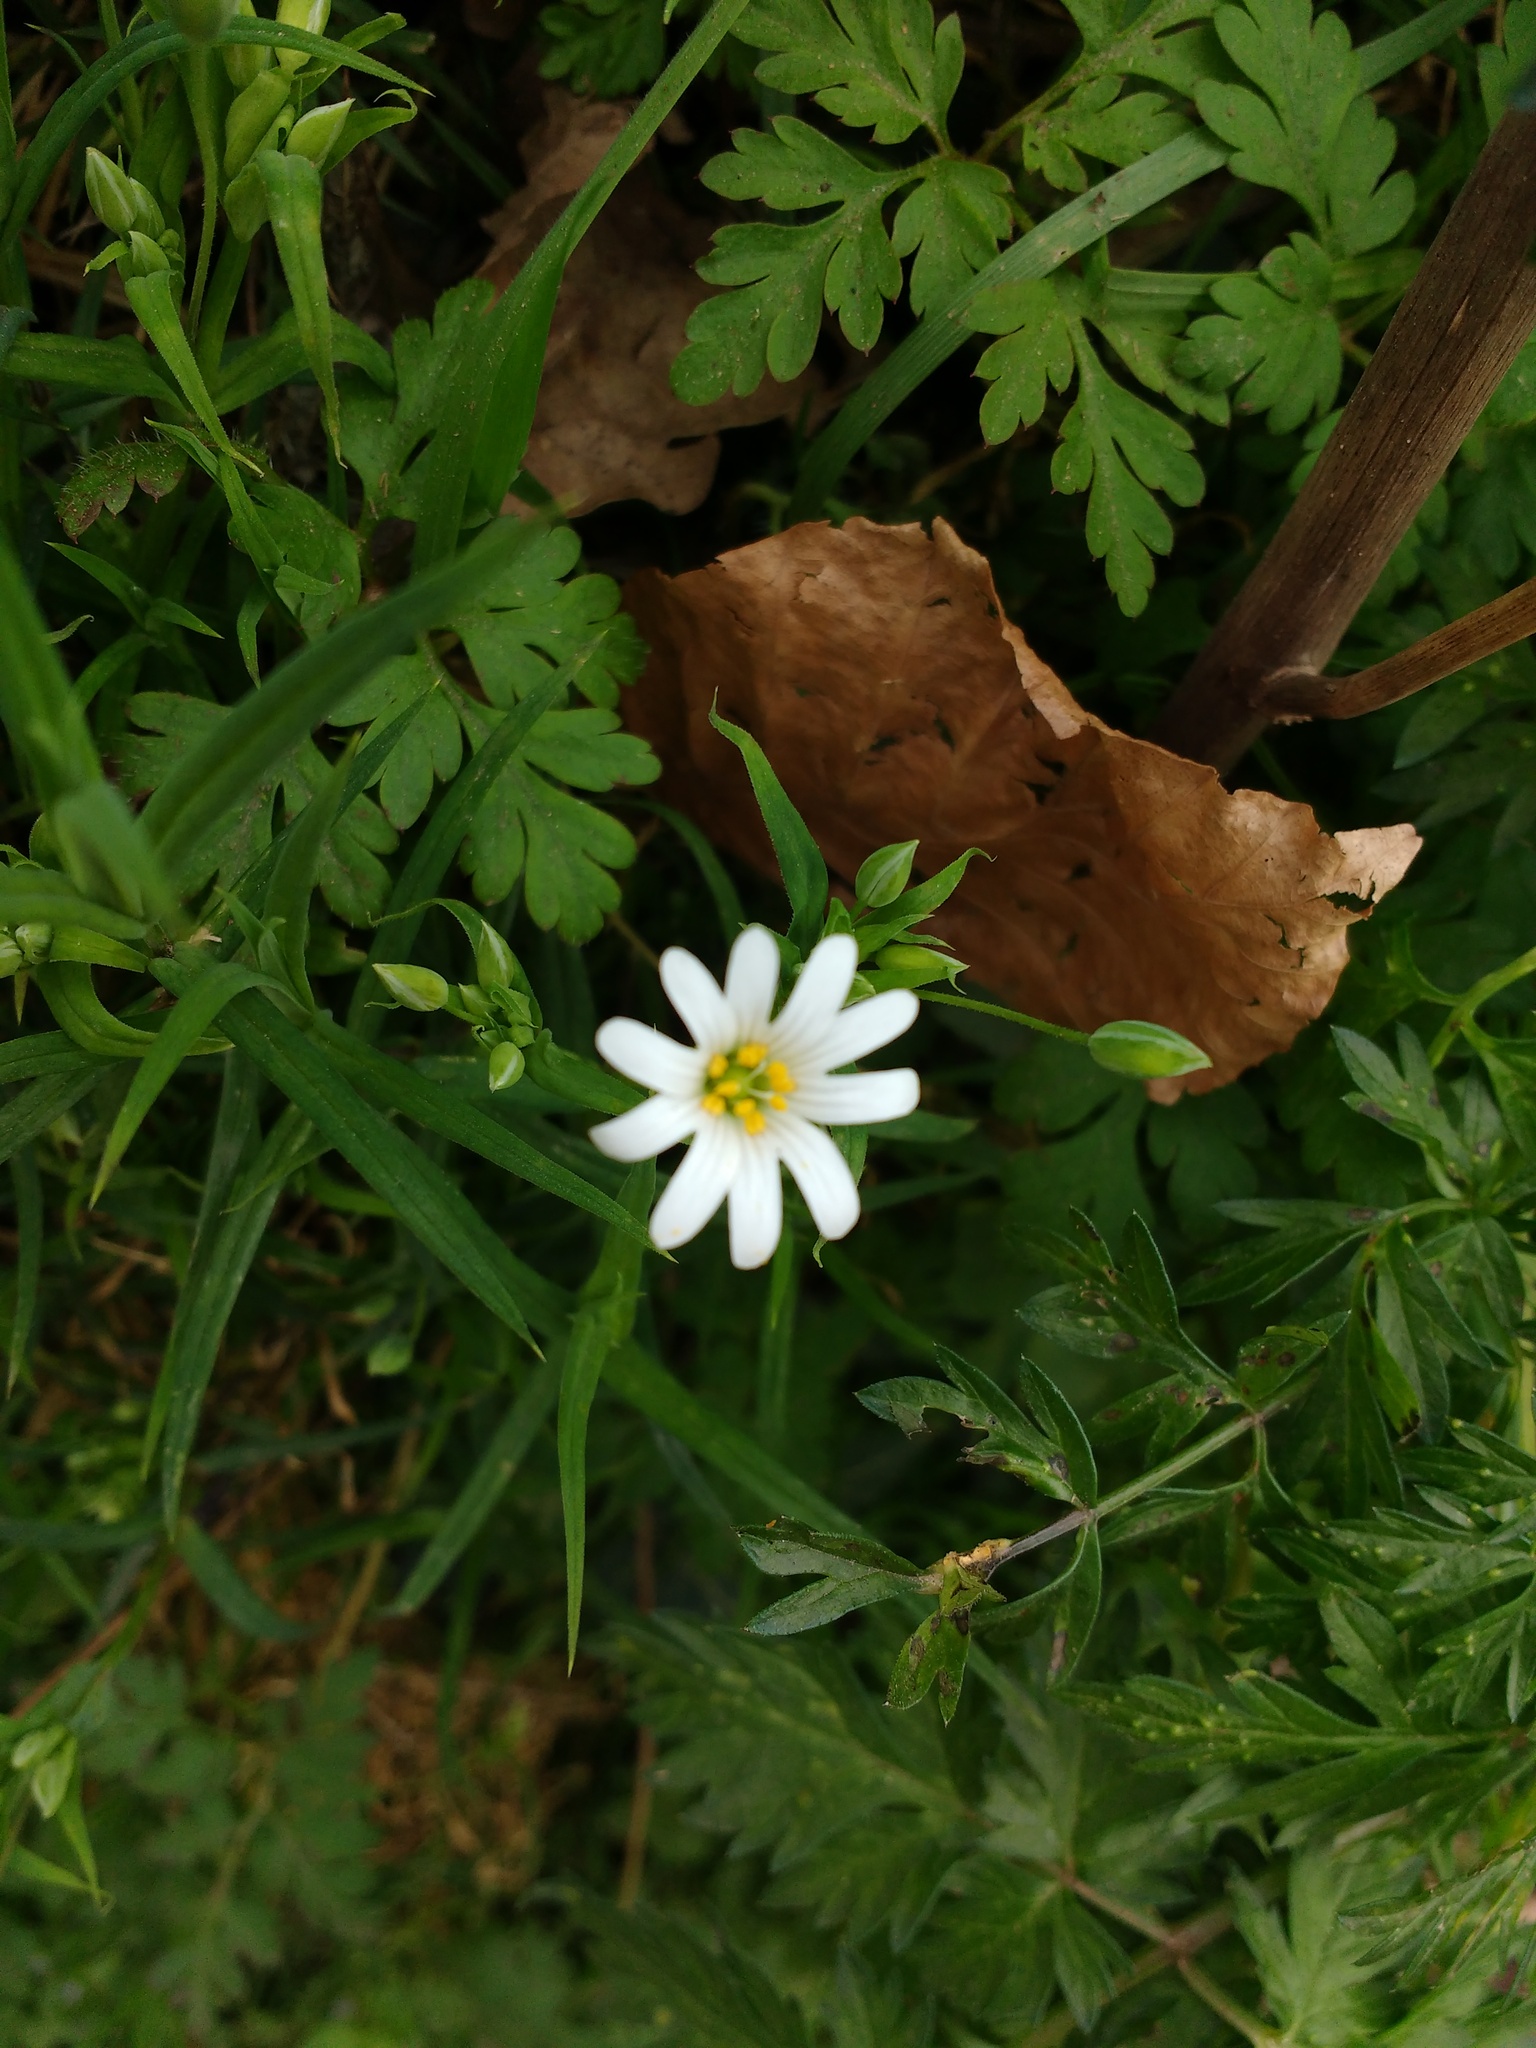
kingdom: Plantae
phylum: Tracheophyta
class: Magnoliopsida
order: Caryophyllales
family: Caryophyllaceae
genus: Rabelera
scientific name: Rabelera holostea
